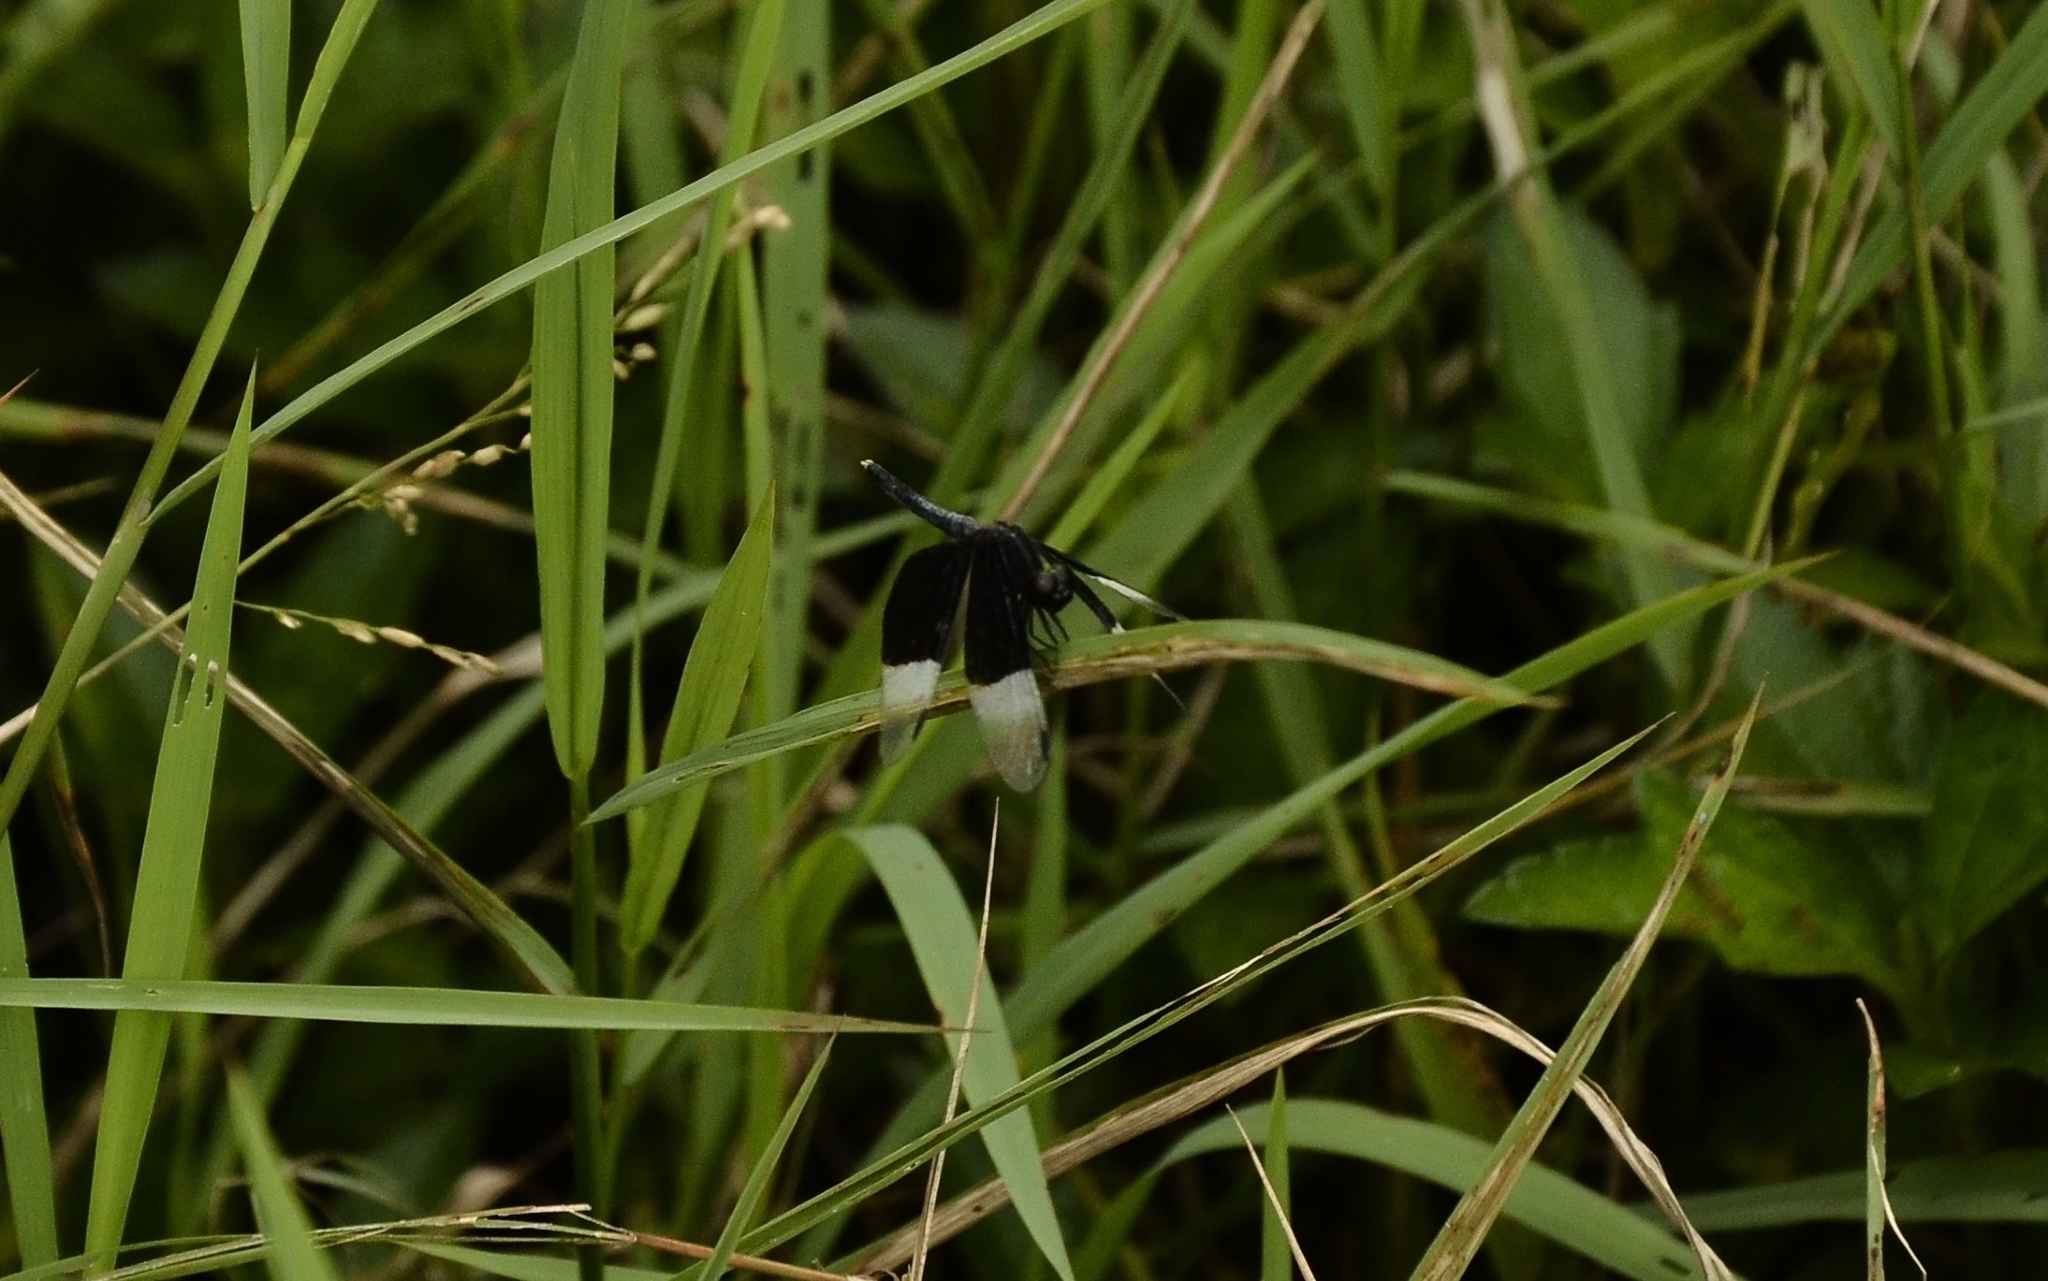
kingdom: Animalia
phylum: Arthropoda
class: Insecta
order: Odonata
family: Libellulidae
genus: Neurothemis
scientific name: Neurothemis tullia
